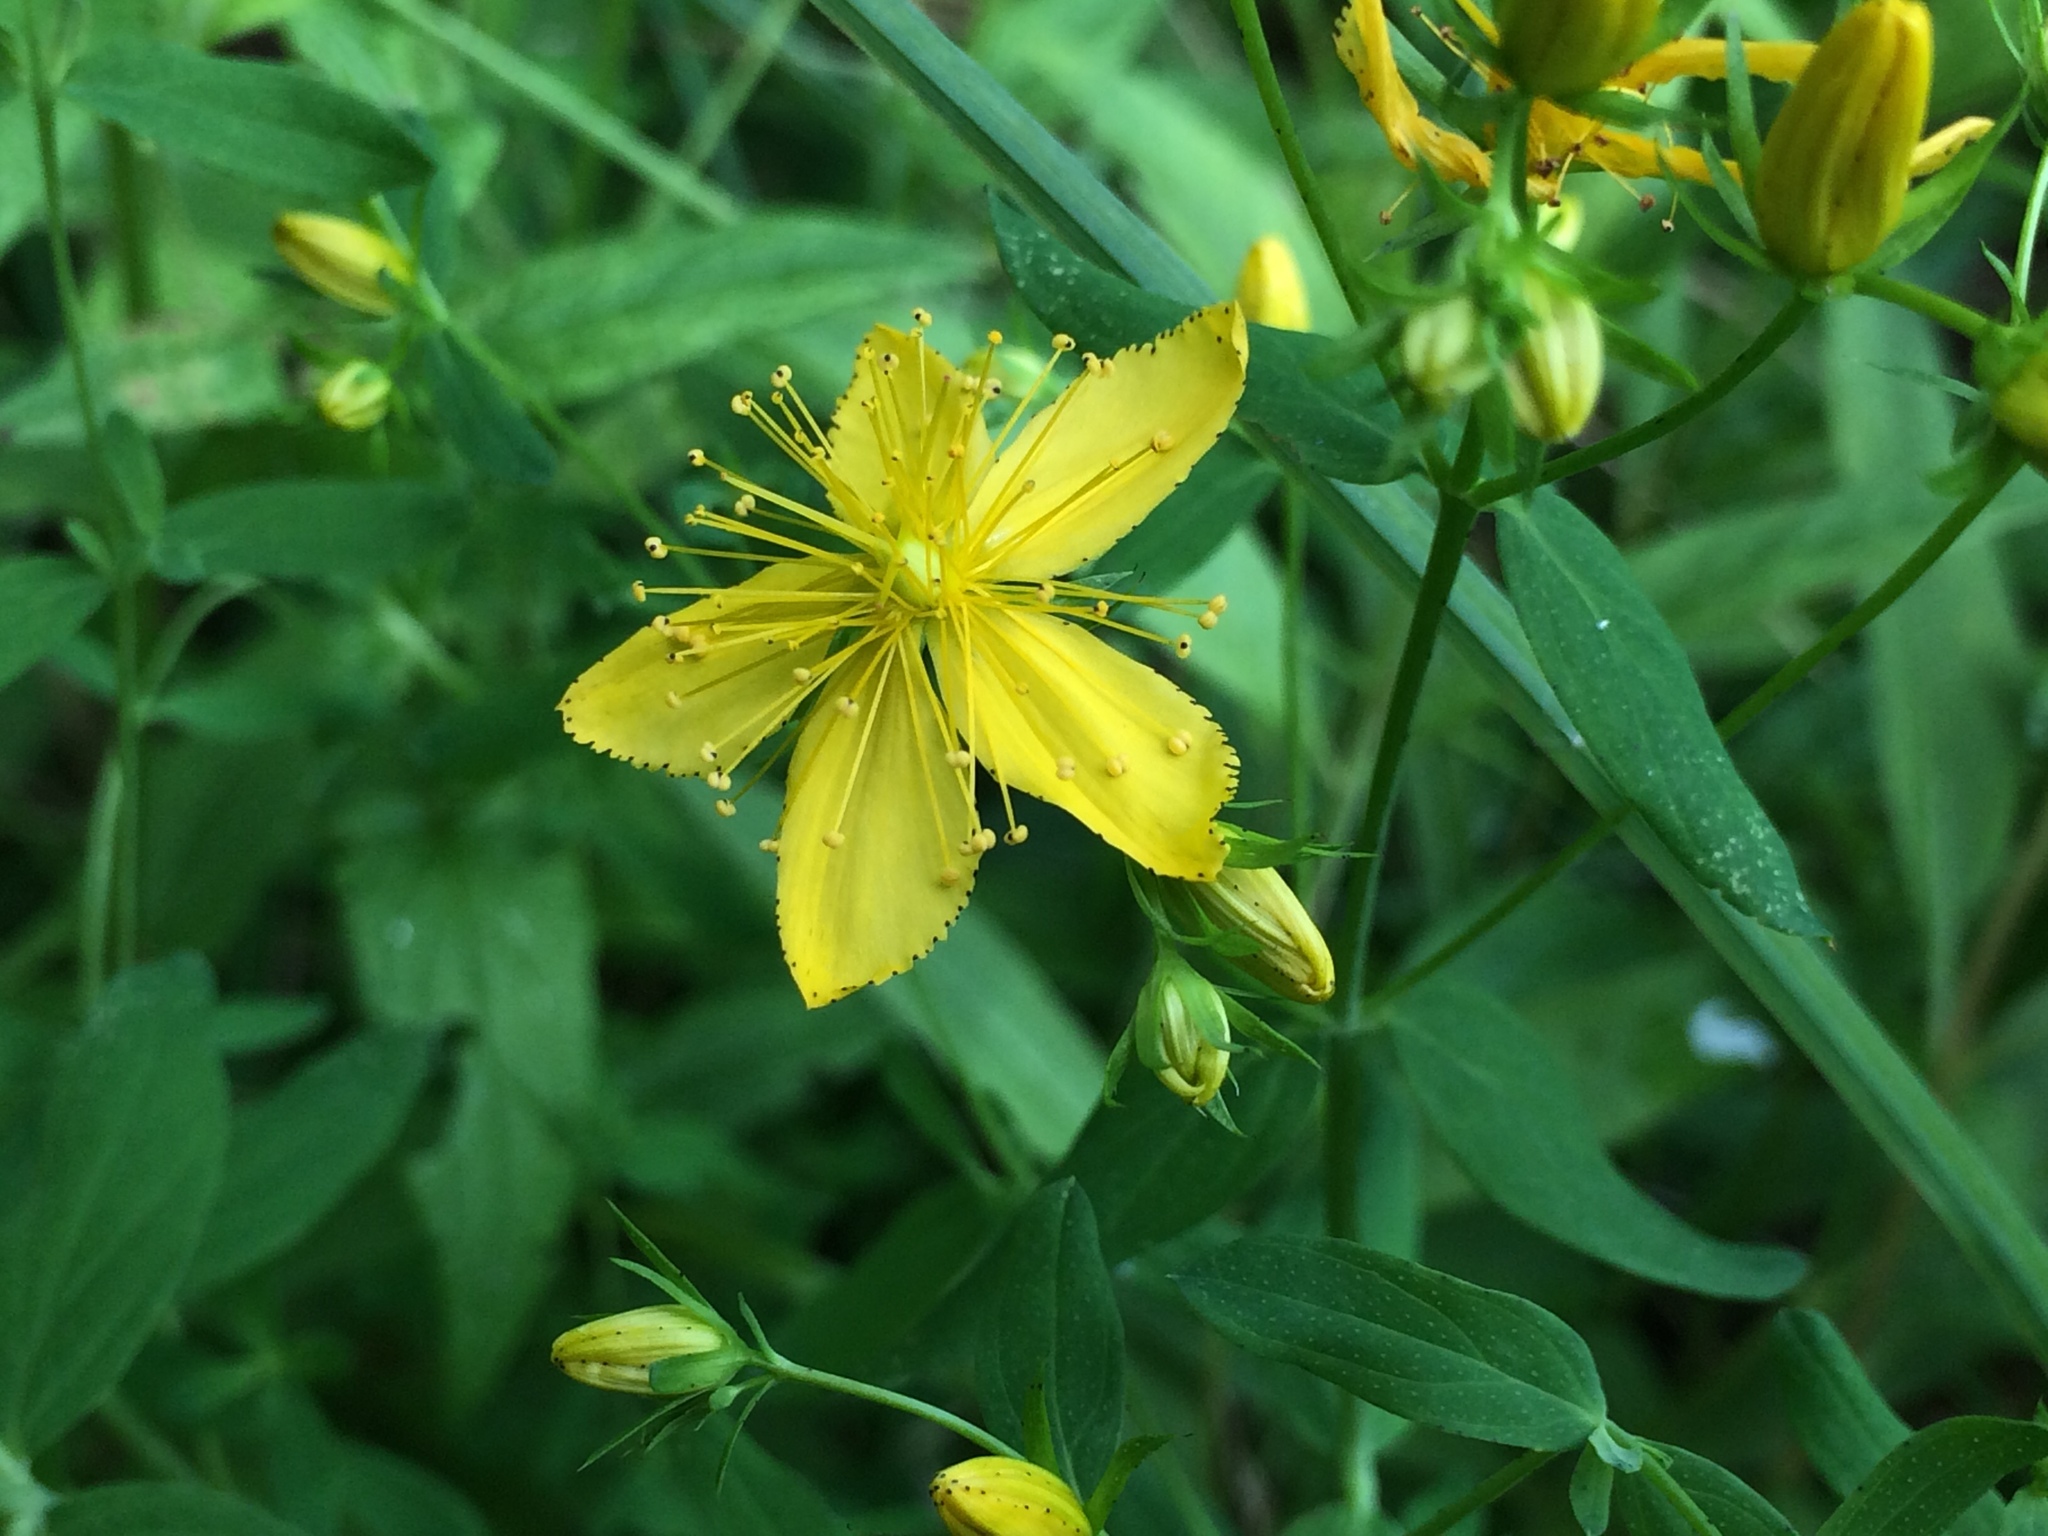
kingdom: Plantae
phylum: Tracheophyta
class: Magnoliopsida
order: Malpighiales
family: Hypericaceae
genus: Hypericum
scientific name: Hypericum perforatum
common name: Common st. johnswort
